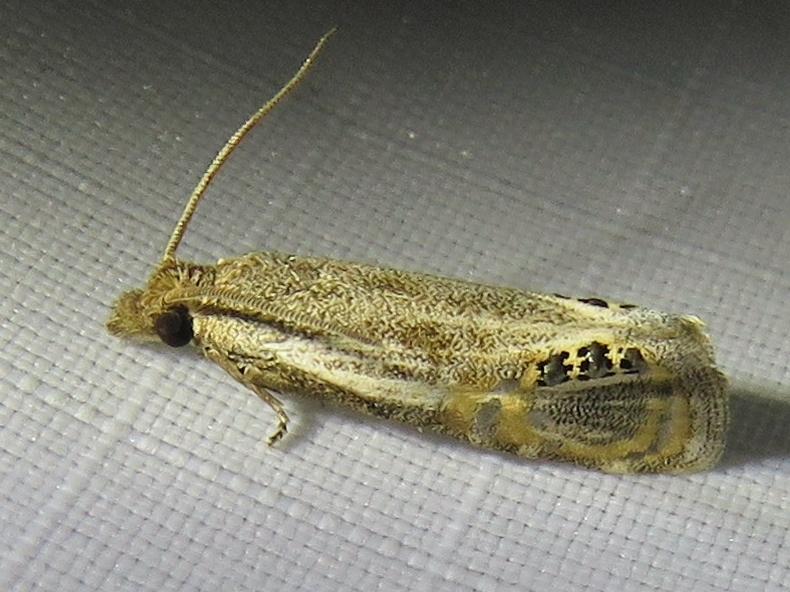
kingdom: Animalia
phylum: Arthropoda
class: Insecta
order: Lepidoptera
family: Tortricidae
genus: Pelochrista
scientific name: Pelochrista scintillana
